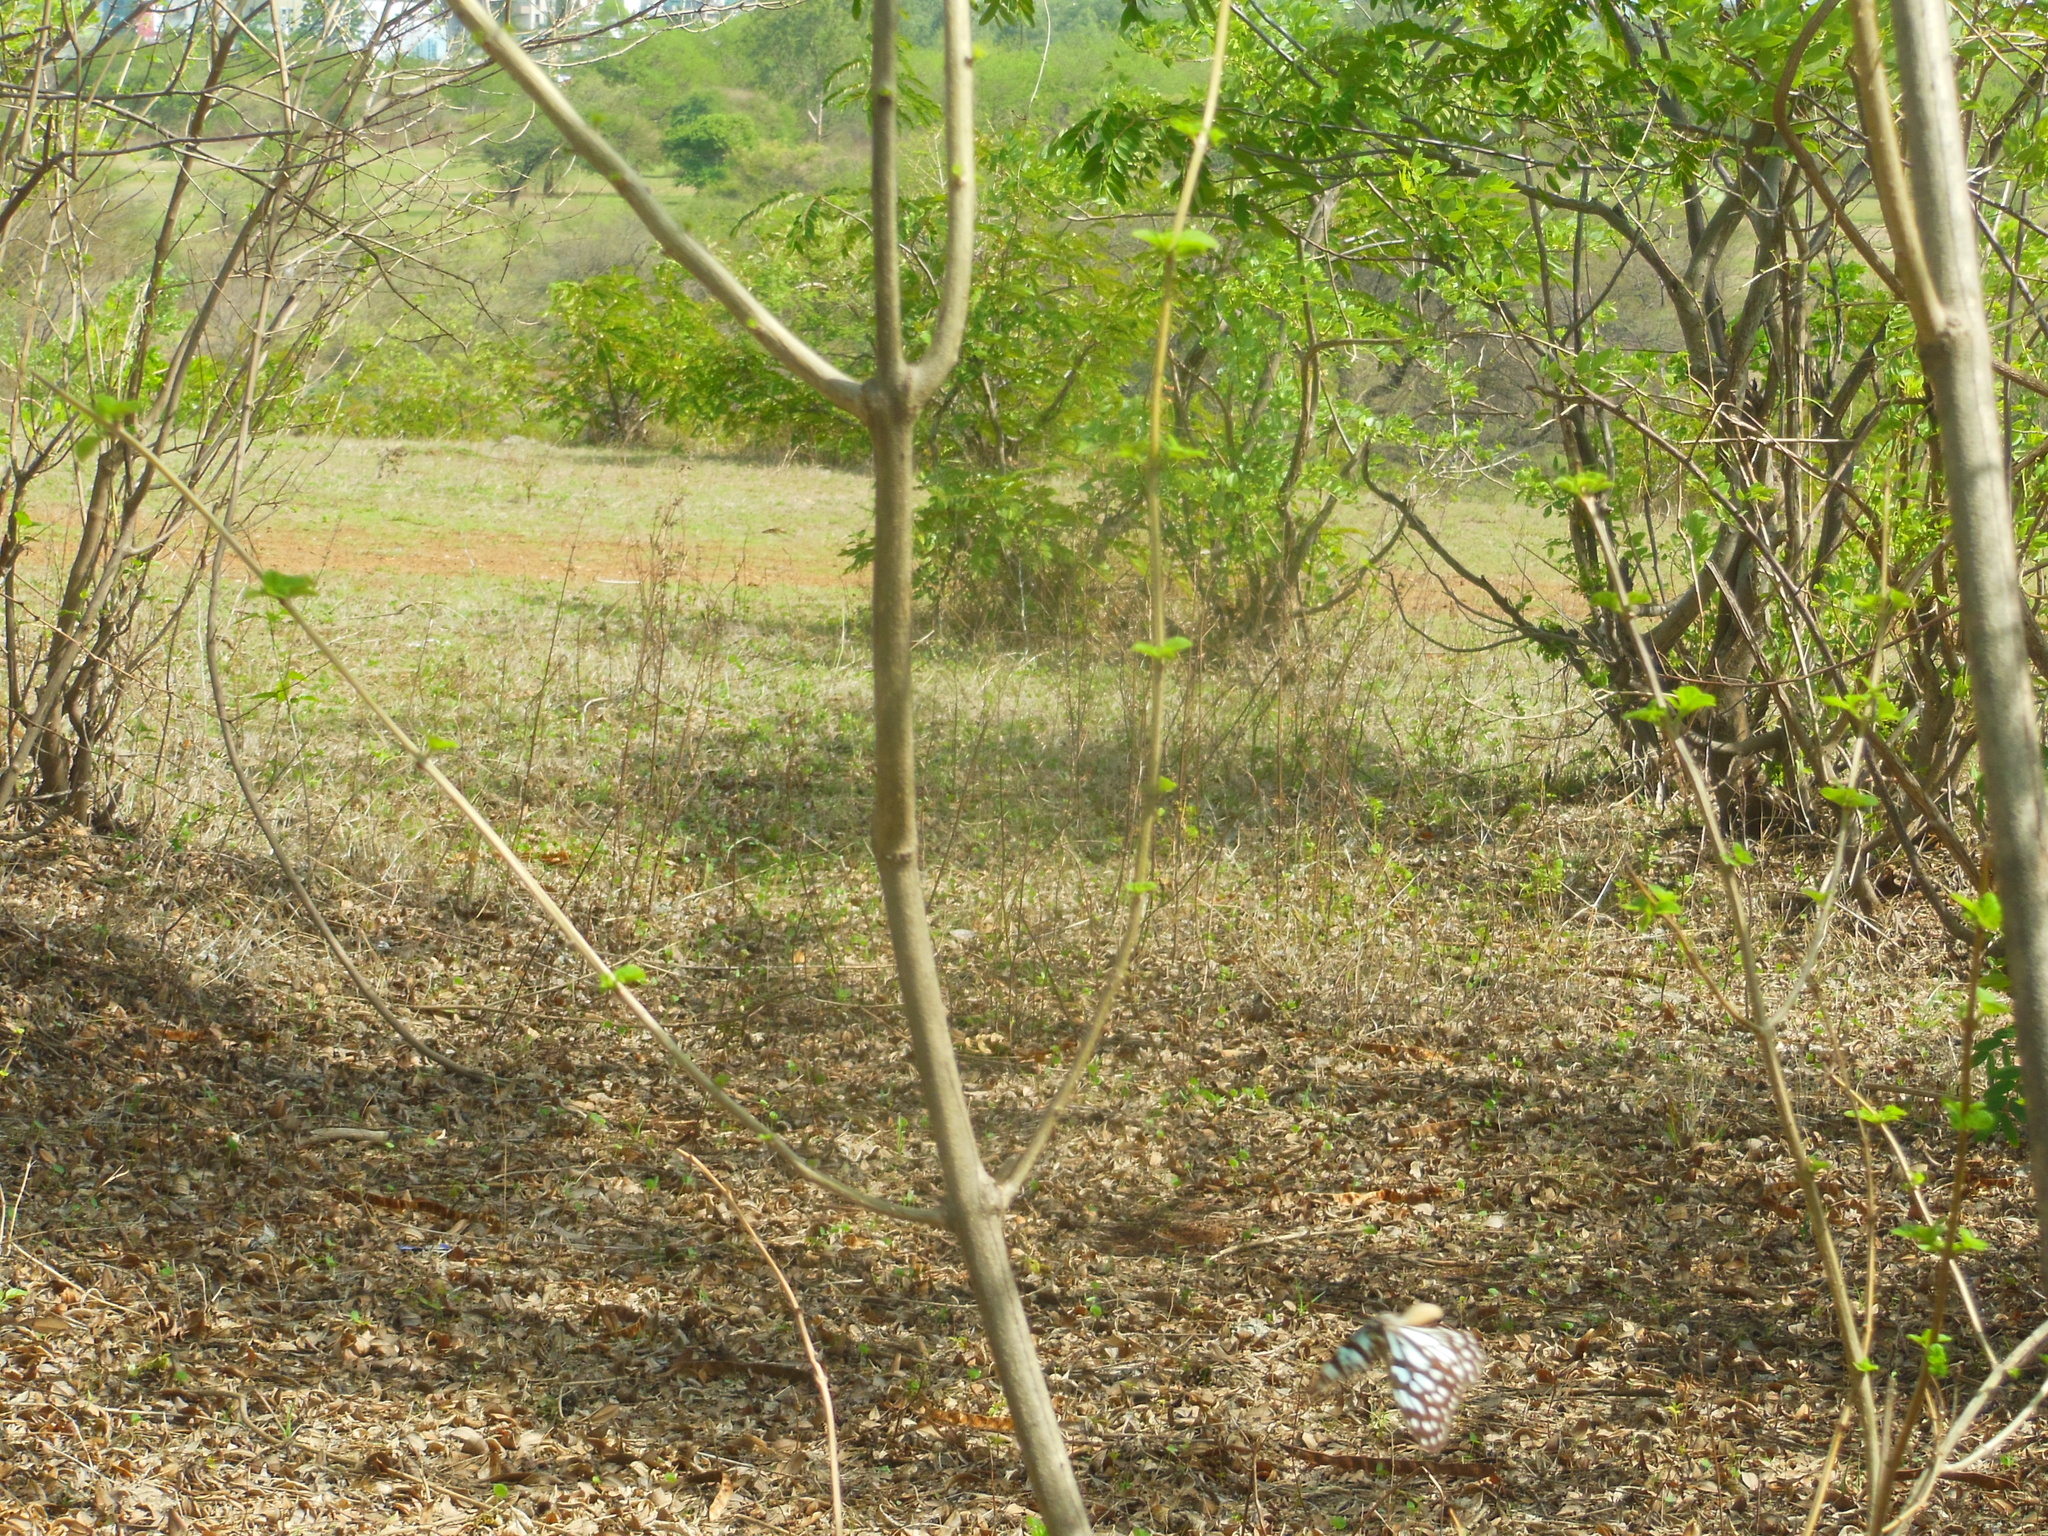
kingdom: Animalia
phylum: Arthropoda
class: Insecta
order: Lepidoptera
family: Nymphalidae
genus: Tirumala
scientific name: Tirumala limniace
